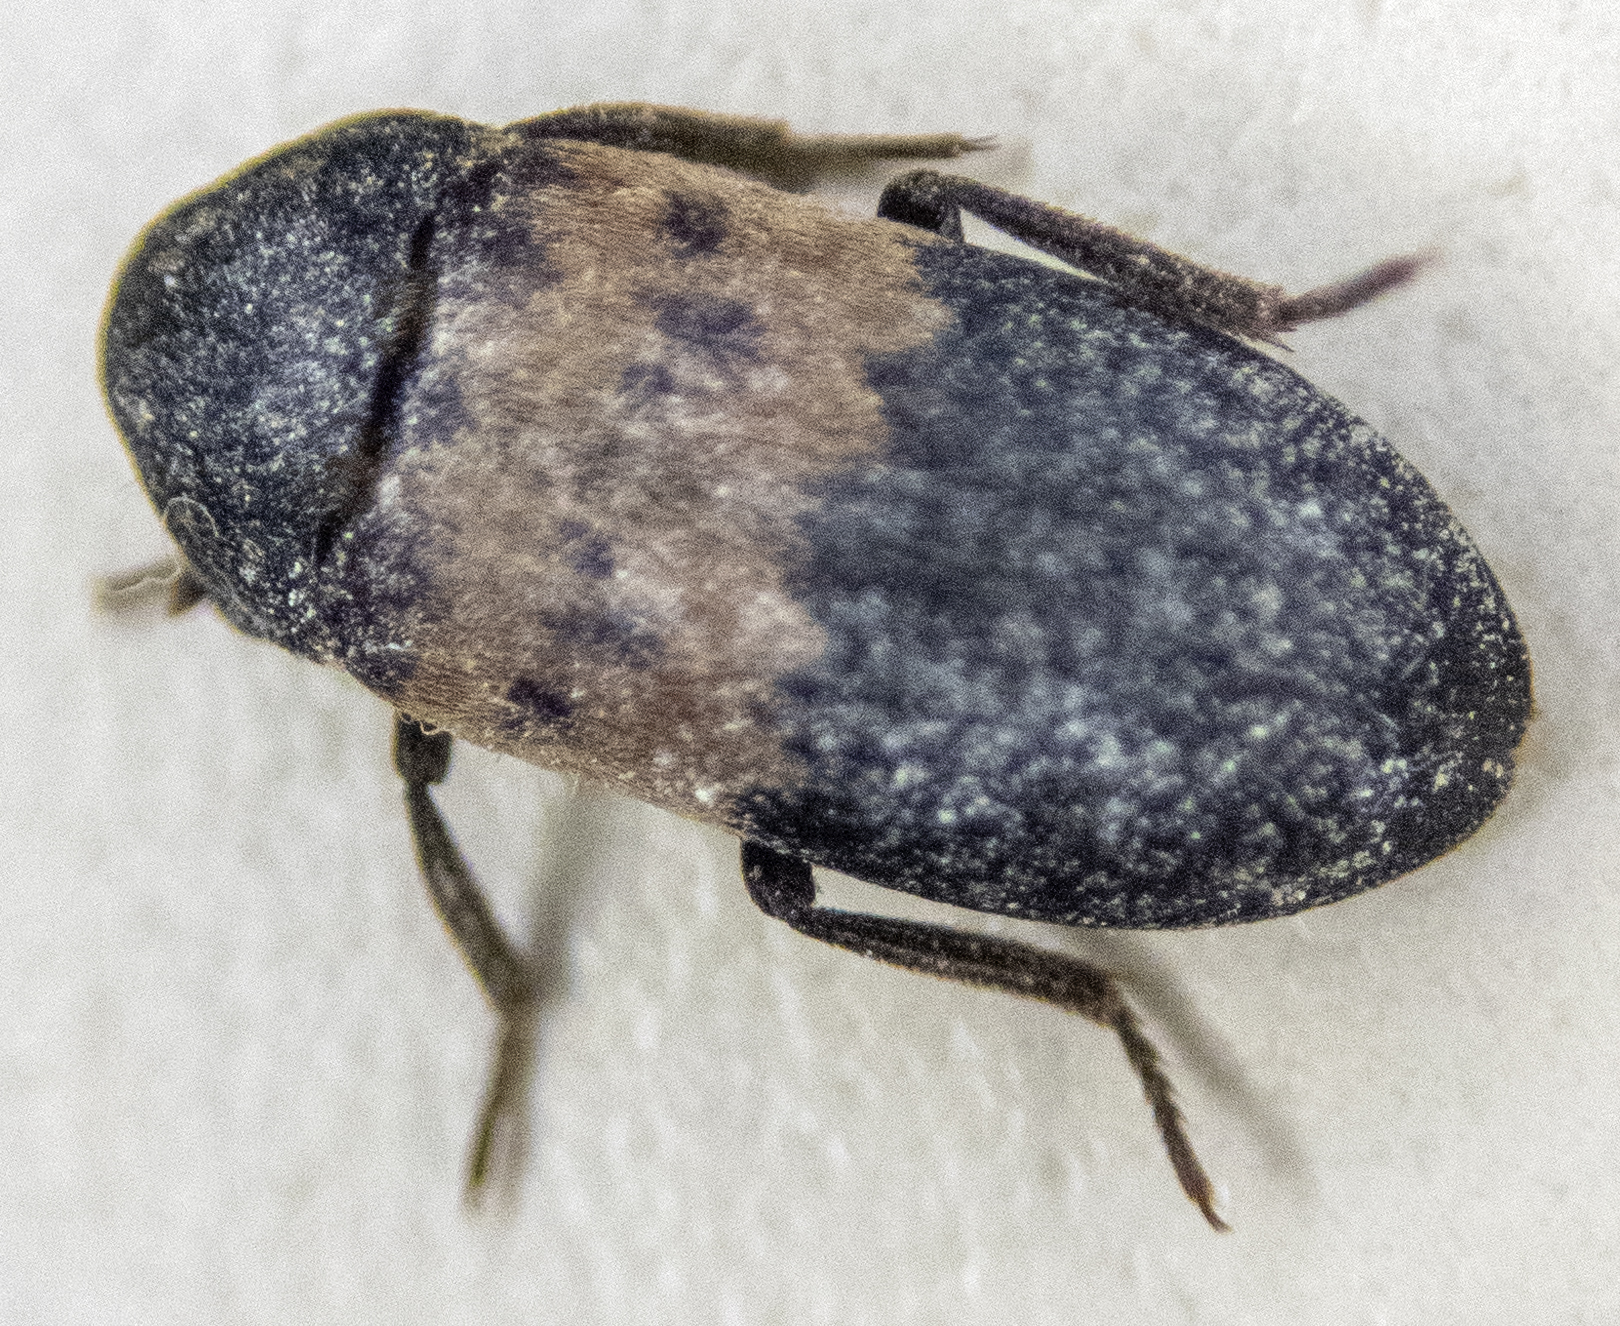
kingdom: Animalia
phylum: Arthropoda
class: Insecta
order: Coleoptera
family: Dermestidae
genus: Dermestes
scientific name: Dermestes lardarius
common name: Larder beetle
